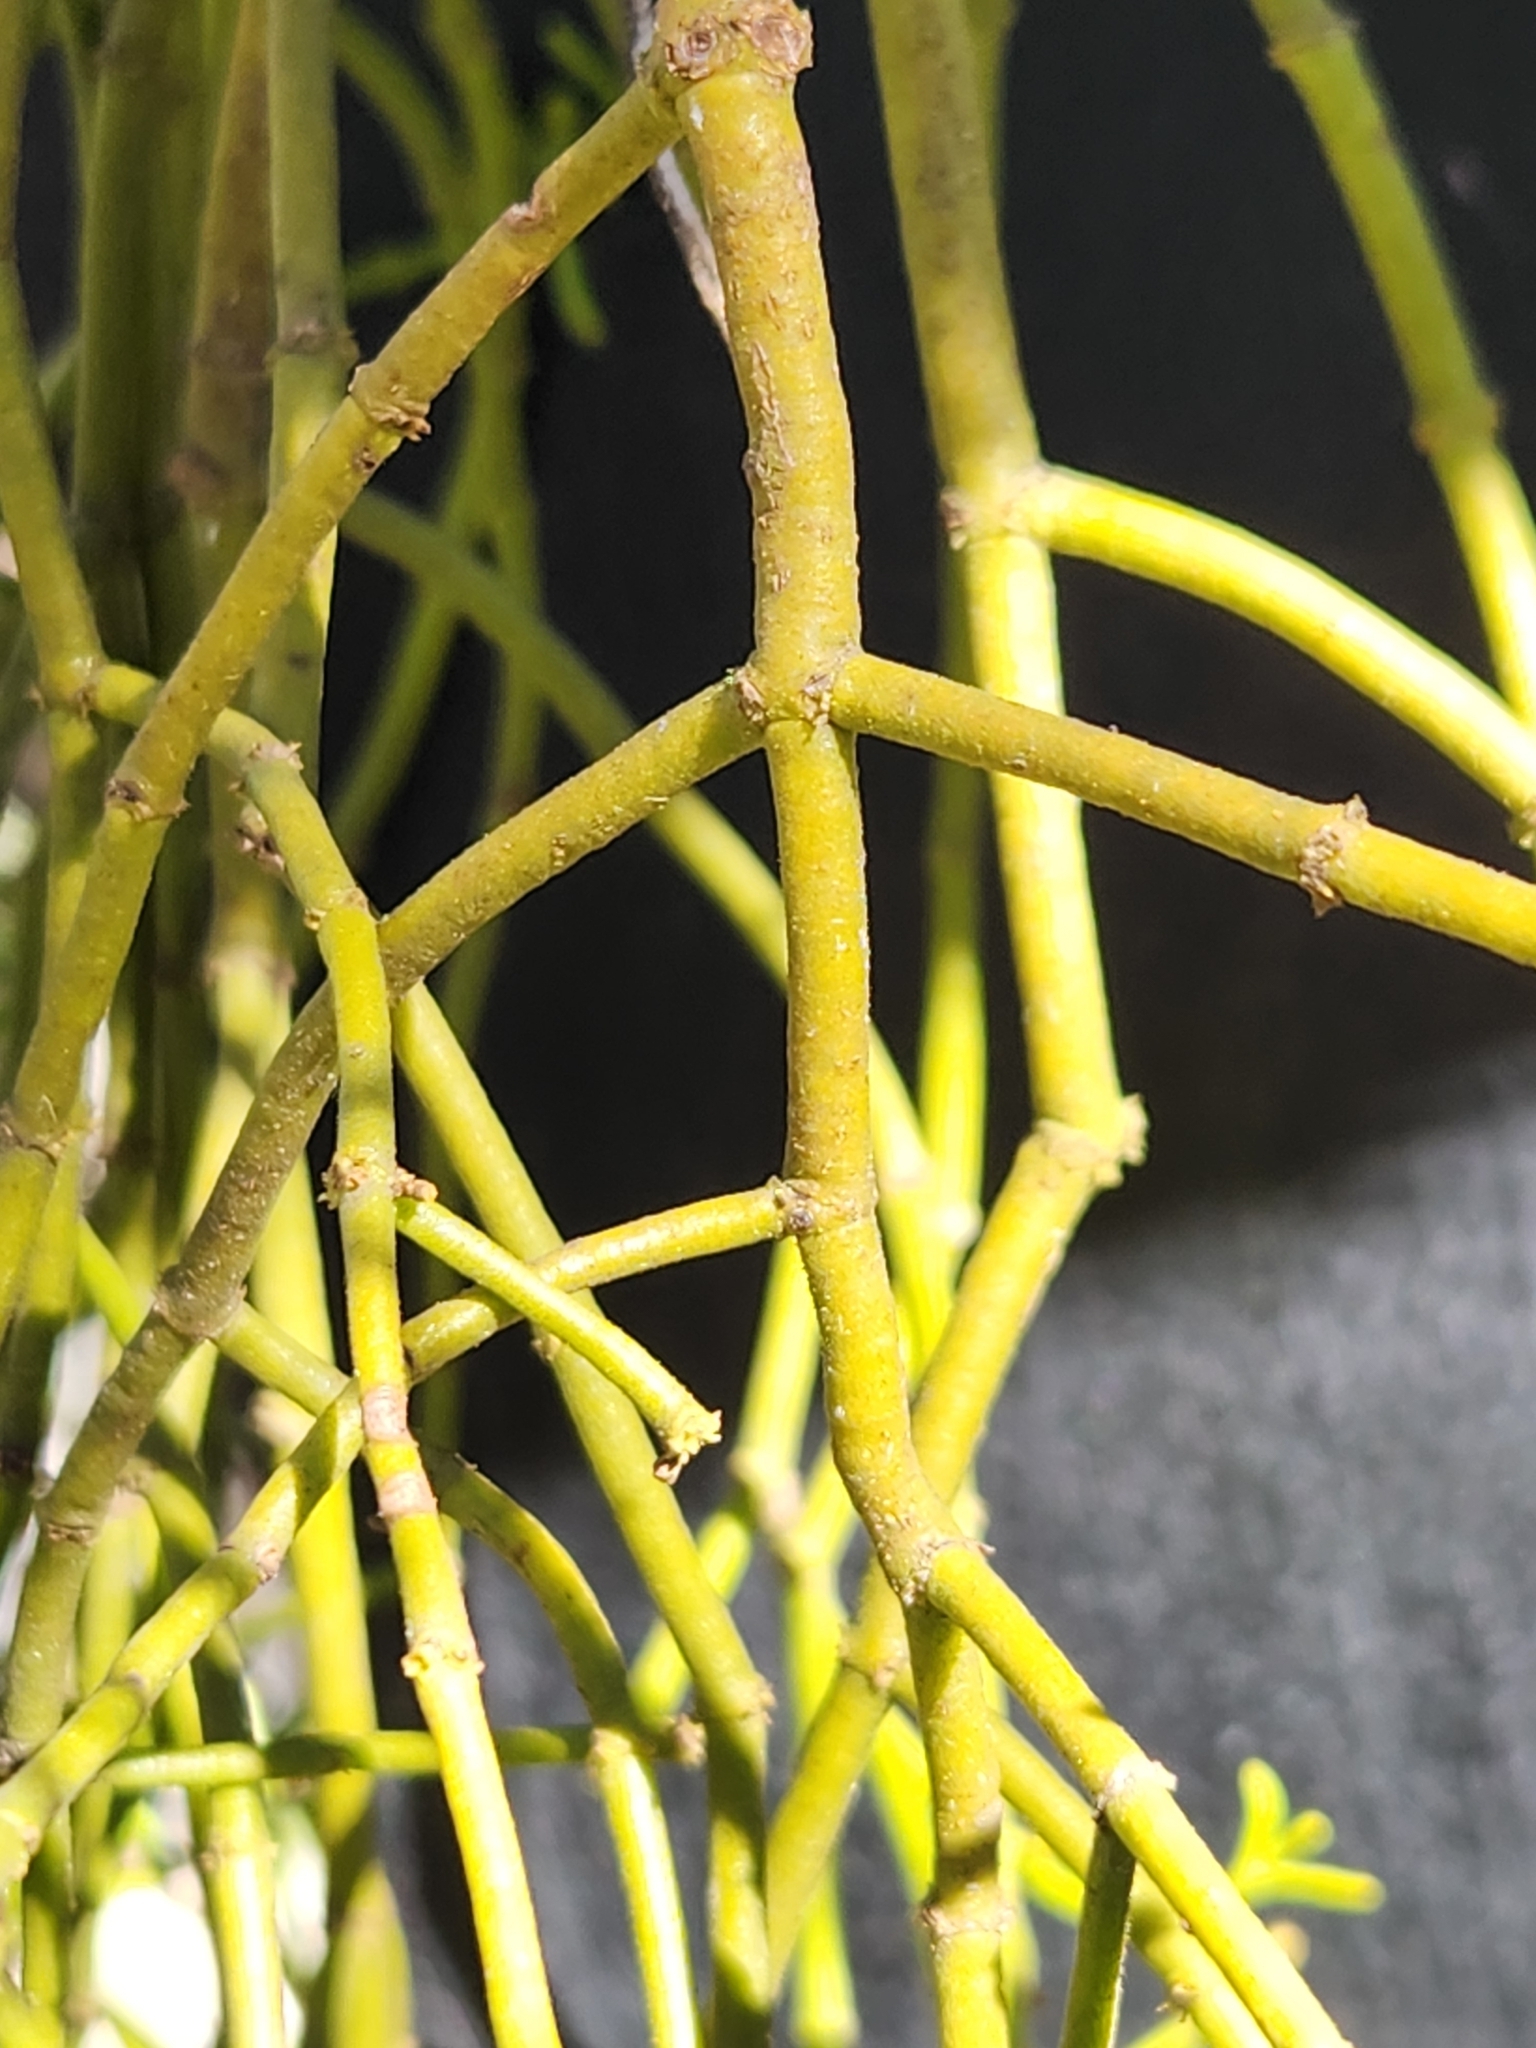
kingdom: Plantae
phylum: Tracheophyta
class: Magnoliopsida
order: Santalales
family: Viscaceae
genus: Phoradendron
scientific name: Phoradendron hawksworthii
